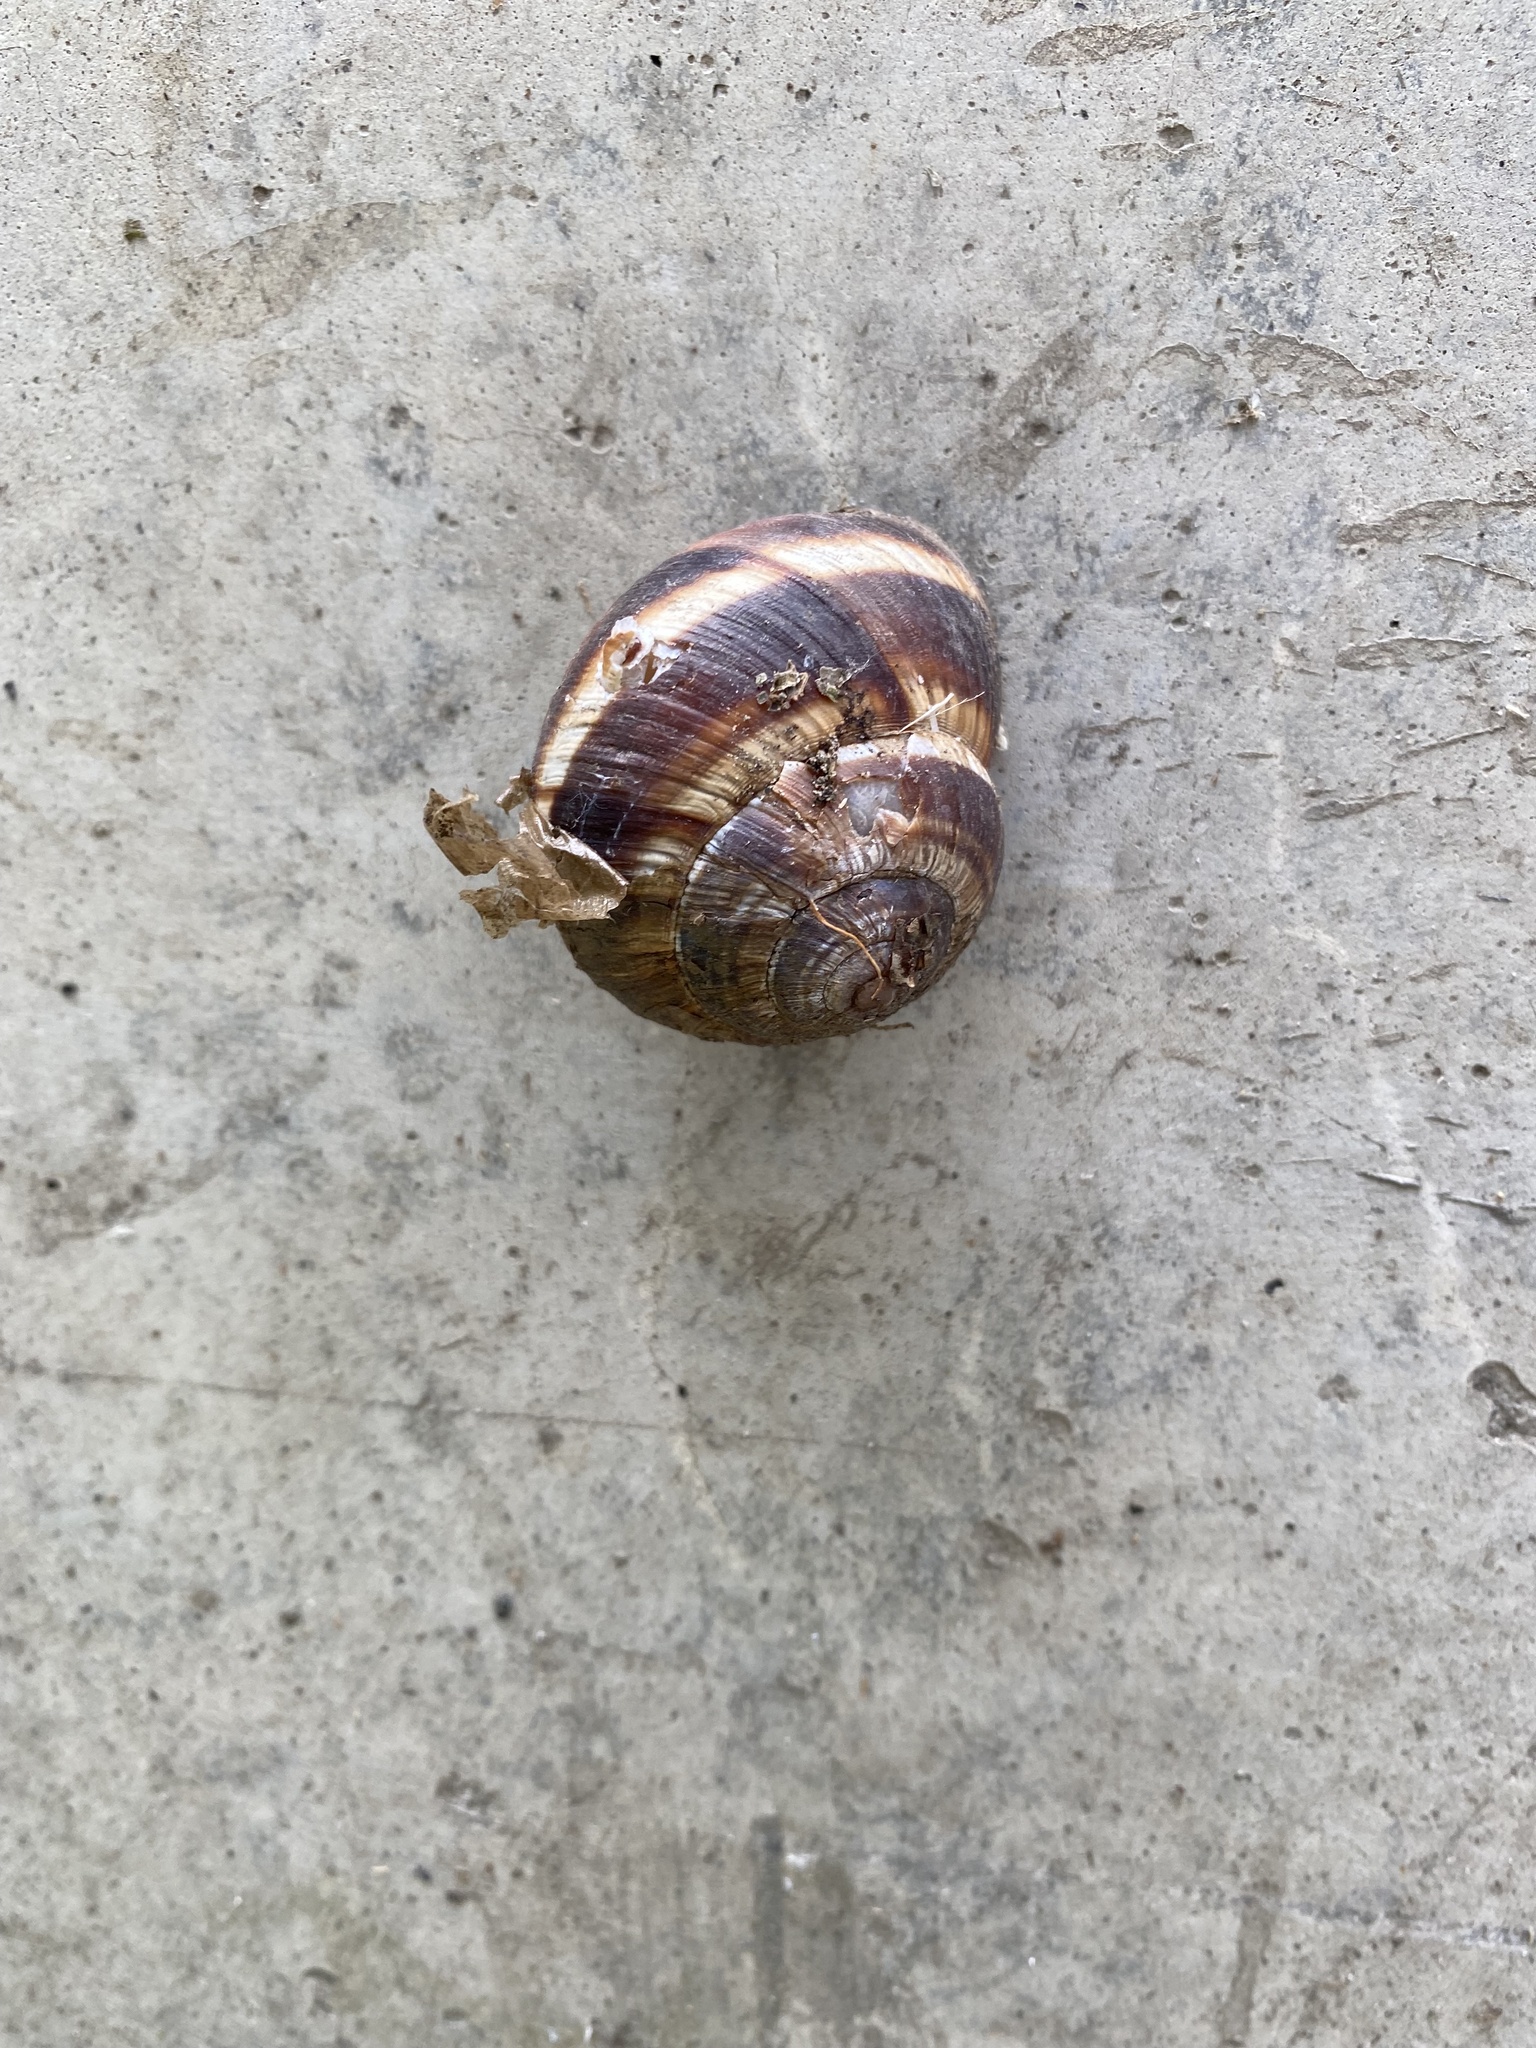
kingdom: Animalia
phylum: Mollusca
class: Gastropoda
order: Stylommatophora
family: Helicidae
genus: Helix
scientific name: Helix lucorum
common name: Turkish snail
